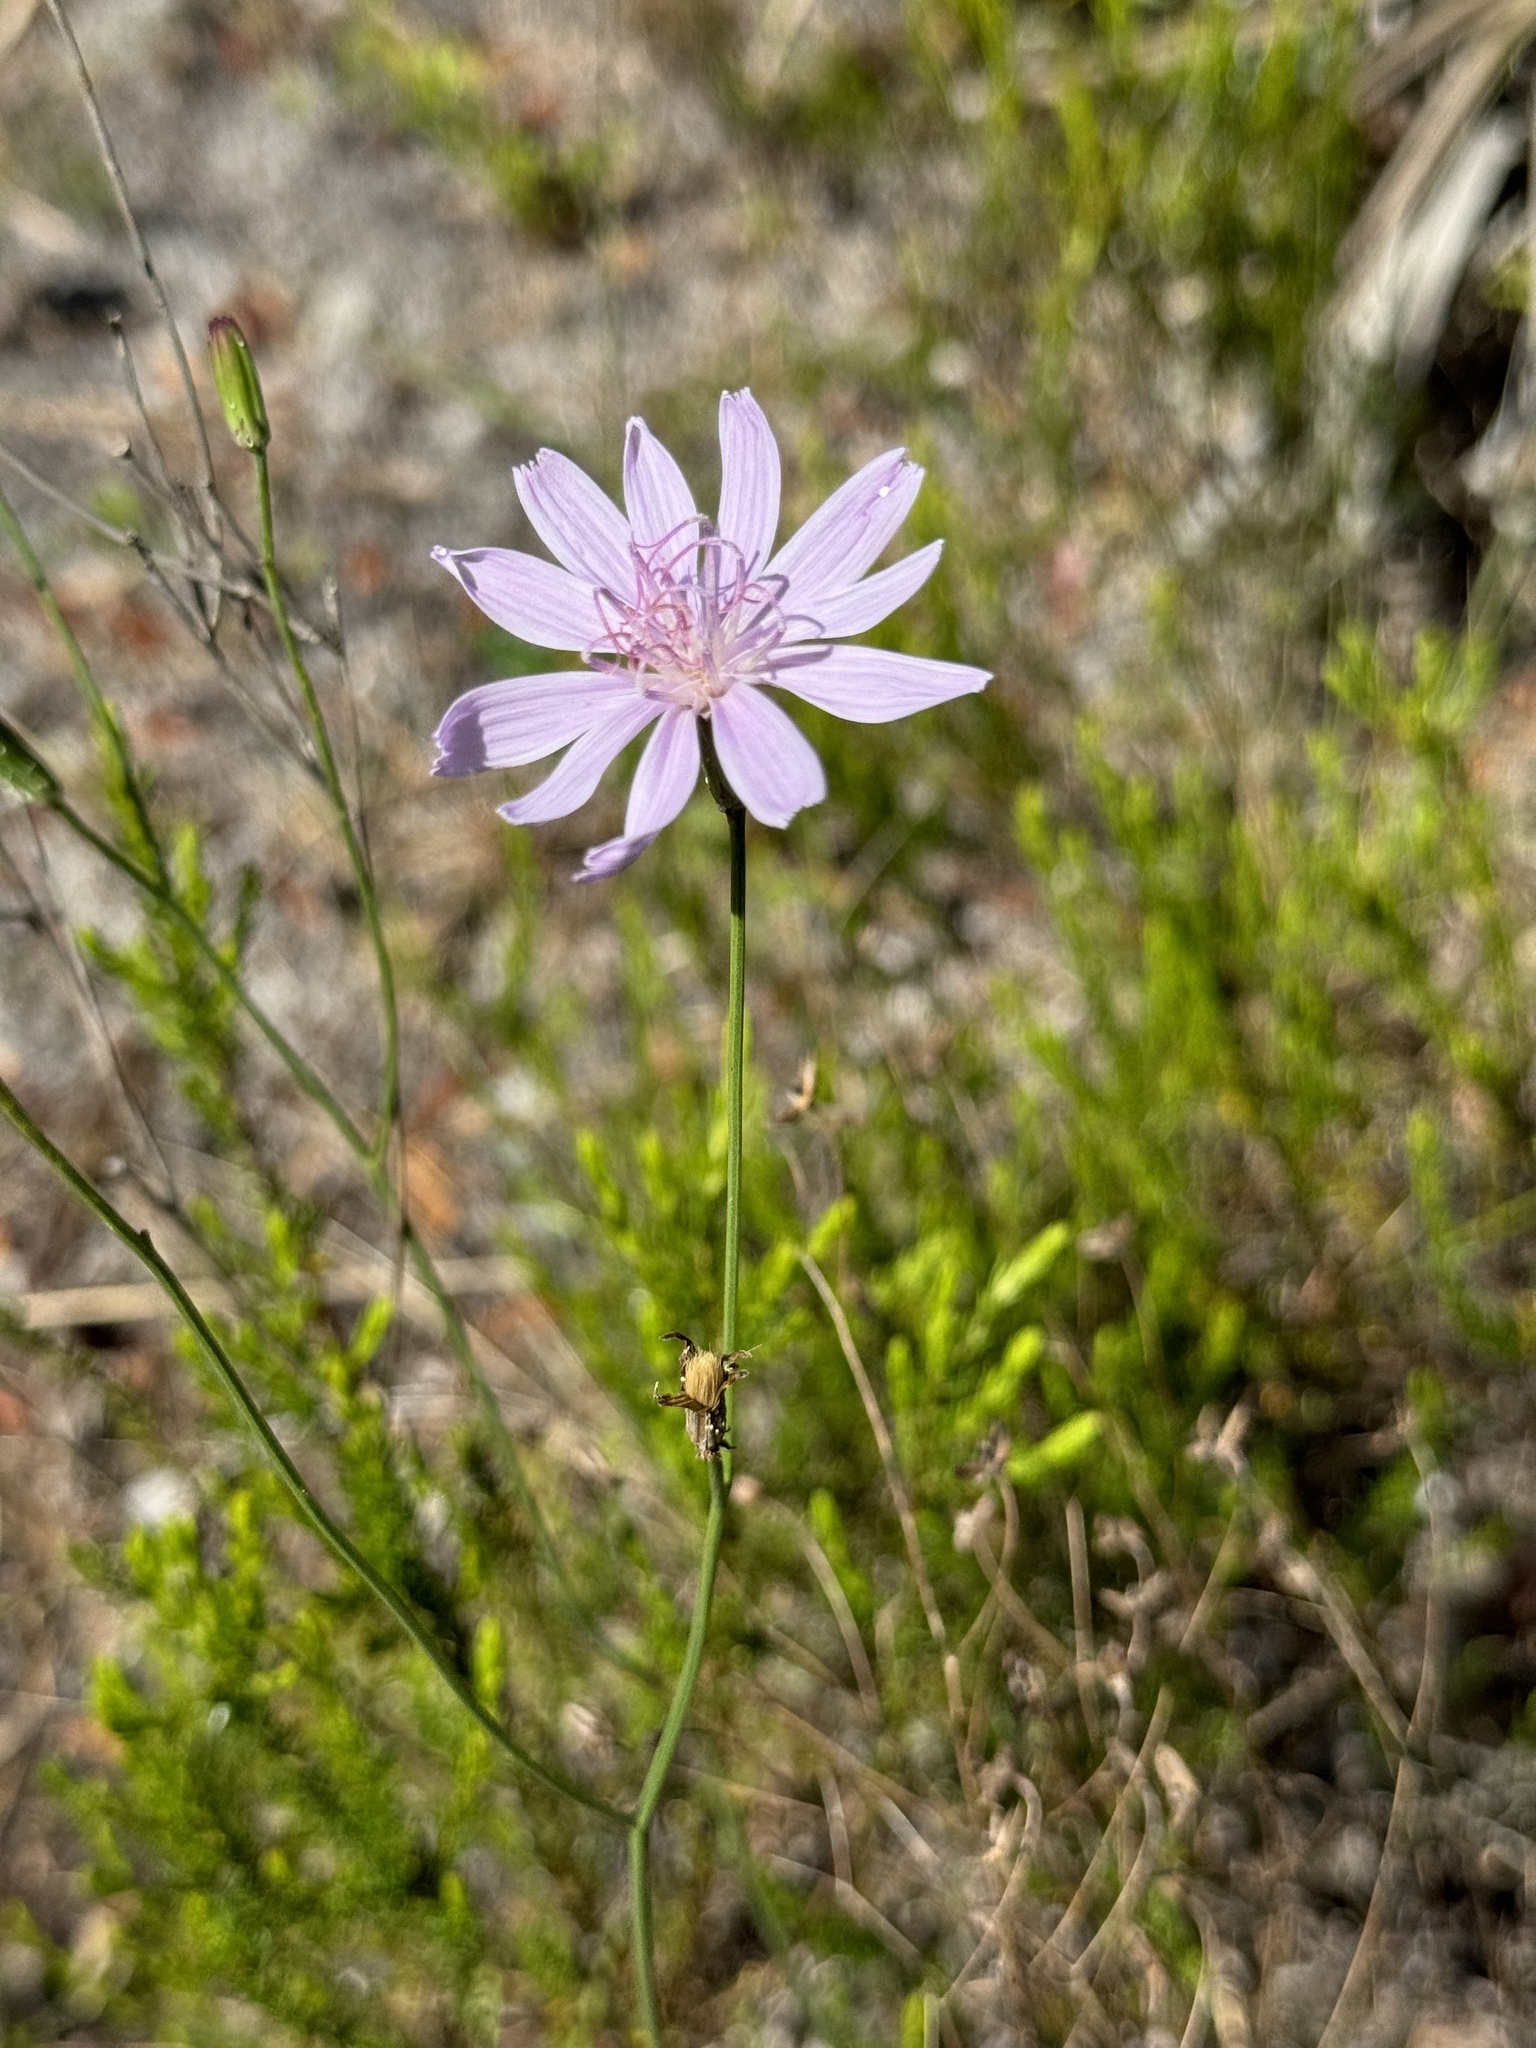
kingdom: Plantae
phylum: Tracheophyta
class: Magnoliopsida
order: Asterales
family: Asteraceae
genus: Lygodesmia
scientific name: Lygodesmia aphylla
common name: Rose-rush
